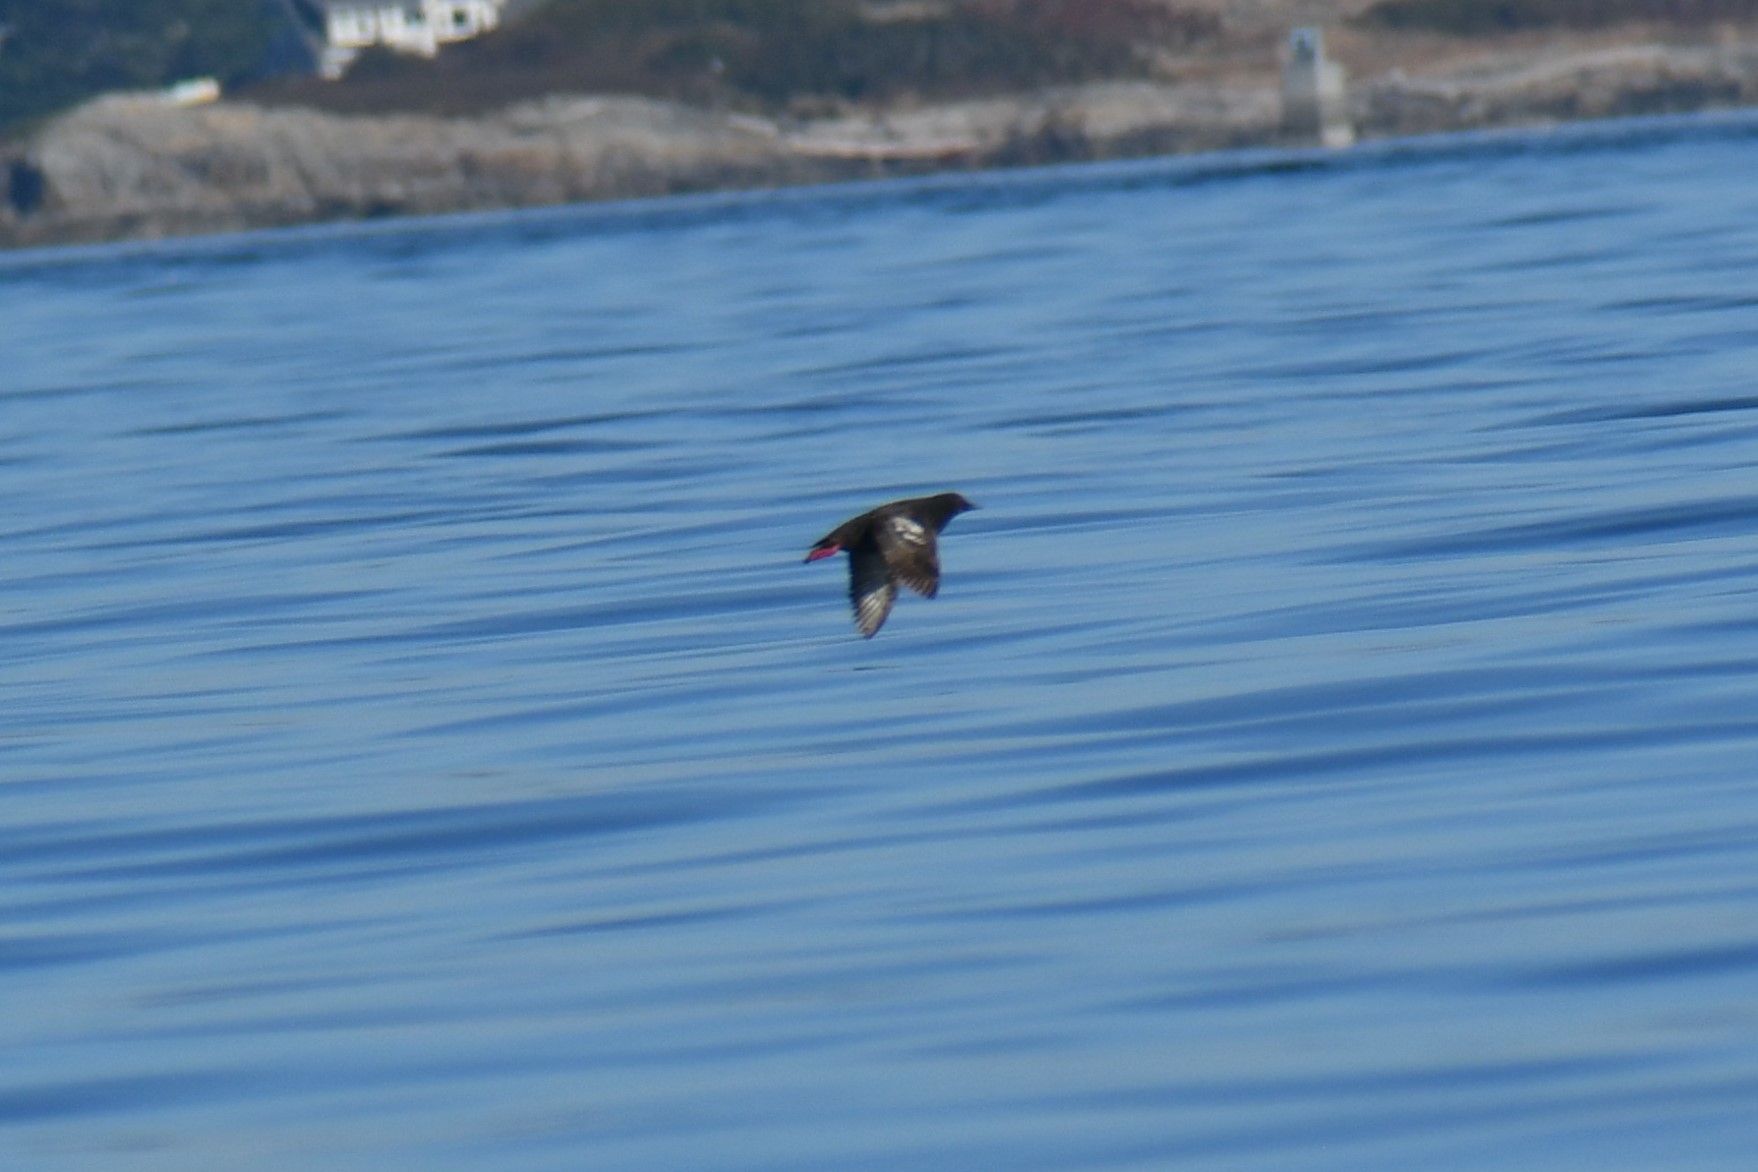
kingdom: Animalia
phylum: Chordata
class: Aves
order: Charadriiformes
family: Alcidae
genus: Cepphus
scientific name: Cepphus columba
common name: Pigeon guillemot
